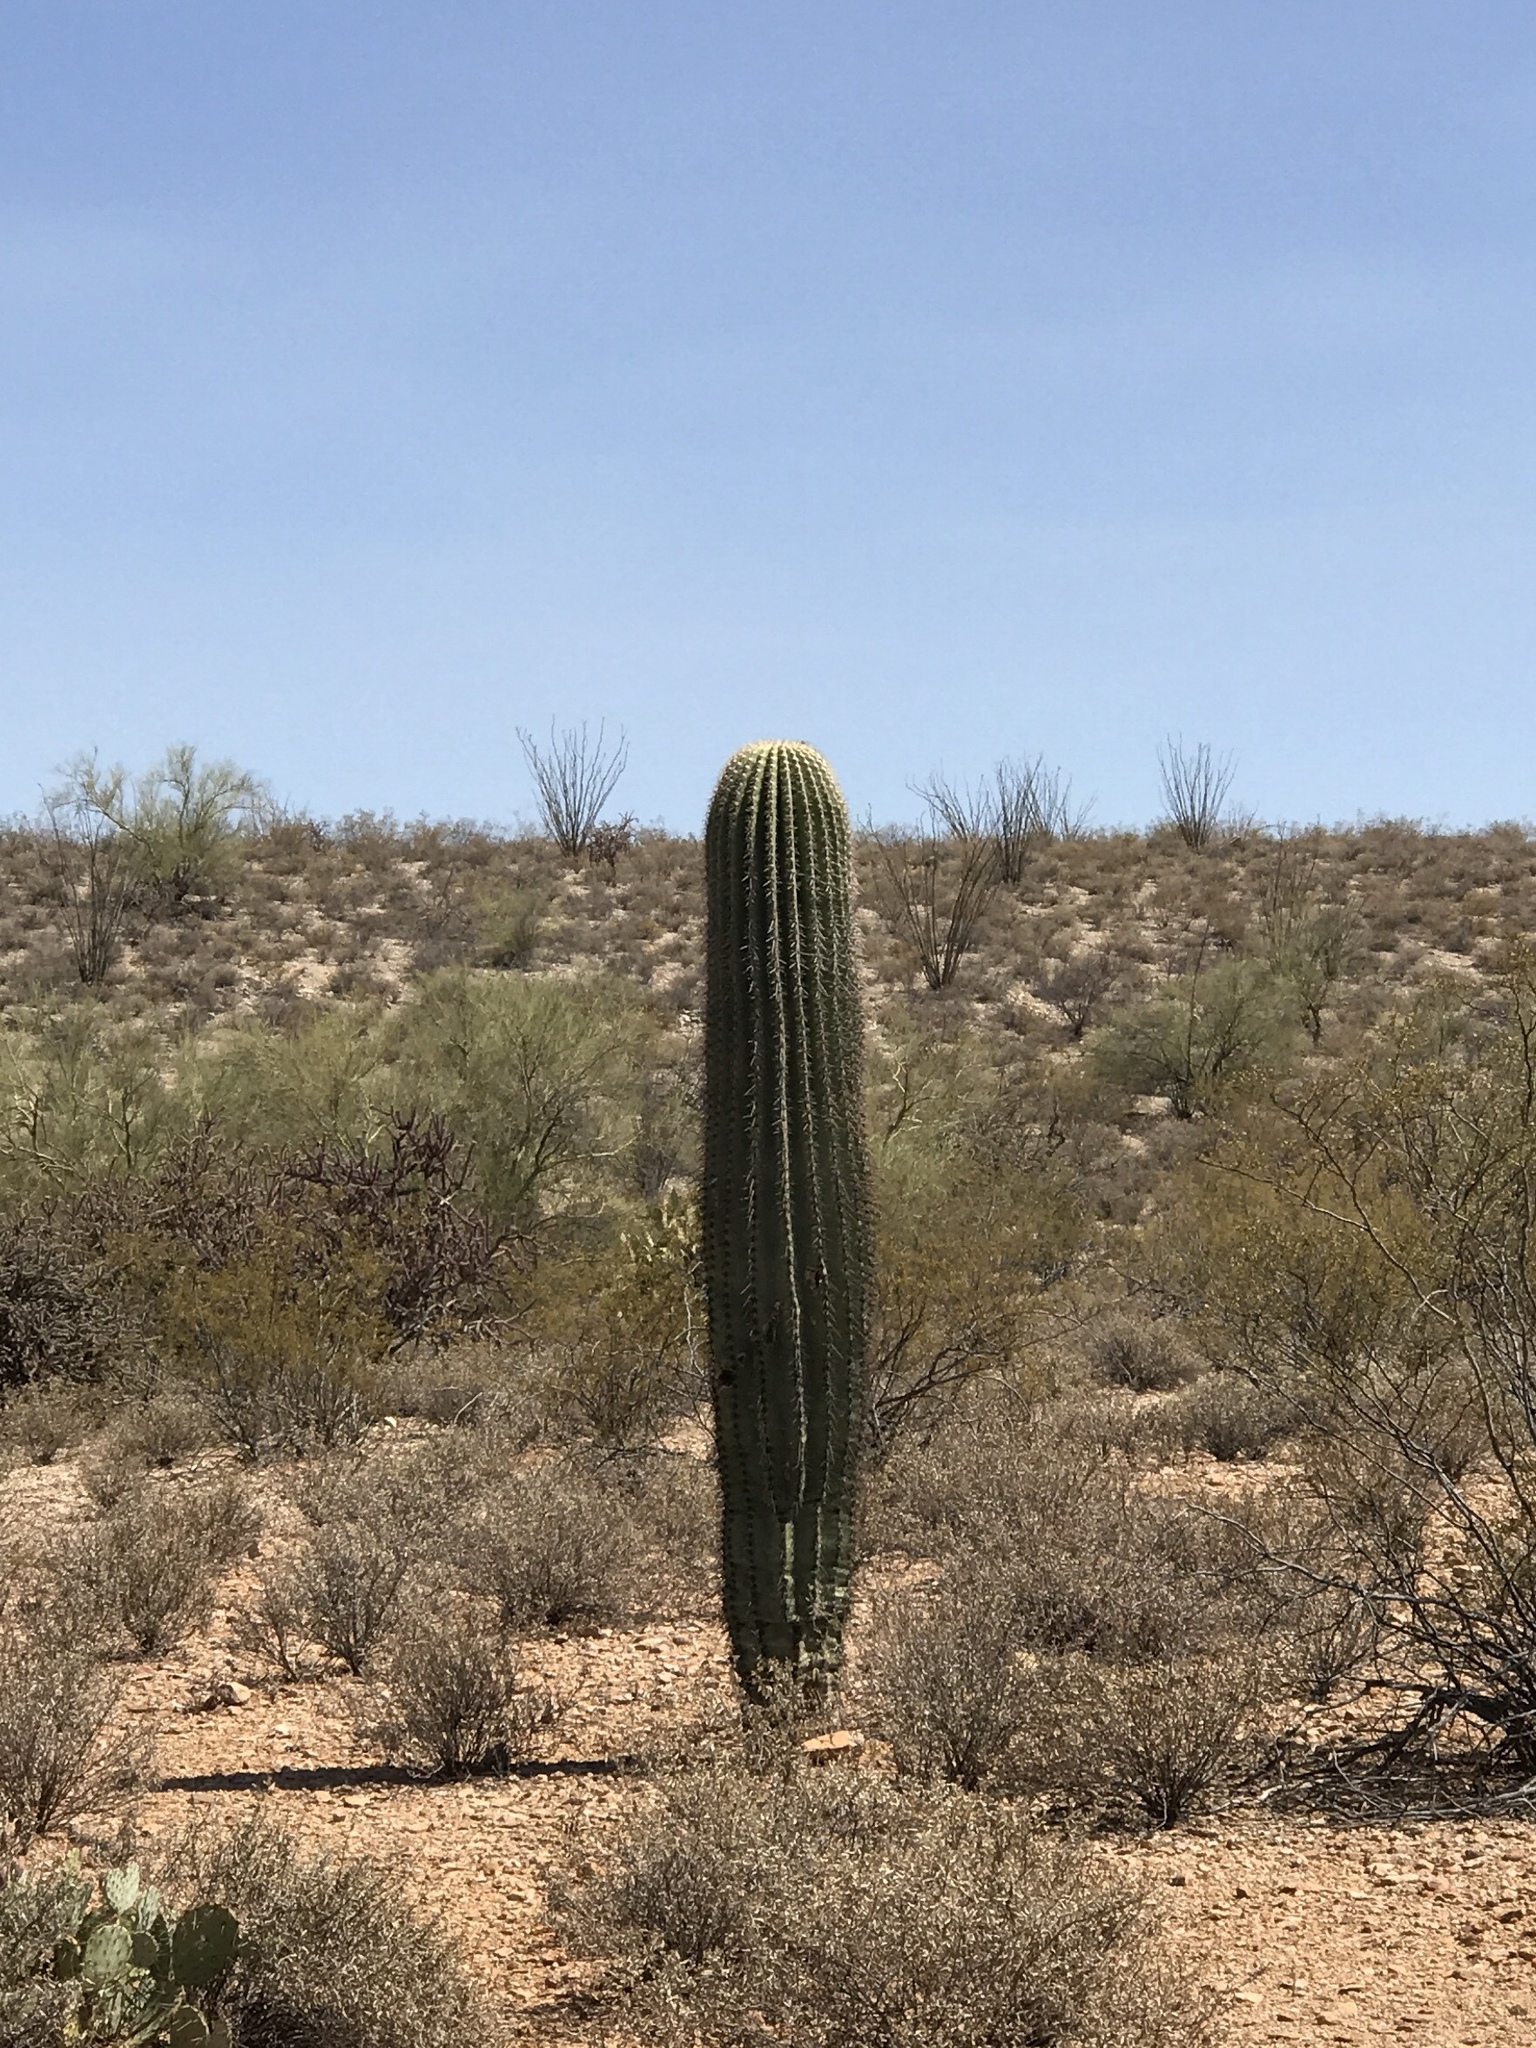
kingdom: Plantae
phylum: Tracheophyta
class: Magnoliopsida
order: Caryophyllales
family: Cactaceae
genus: Carnegiea
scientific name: Carnegiea gigantea
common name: Saguaro
